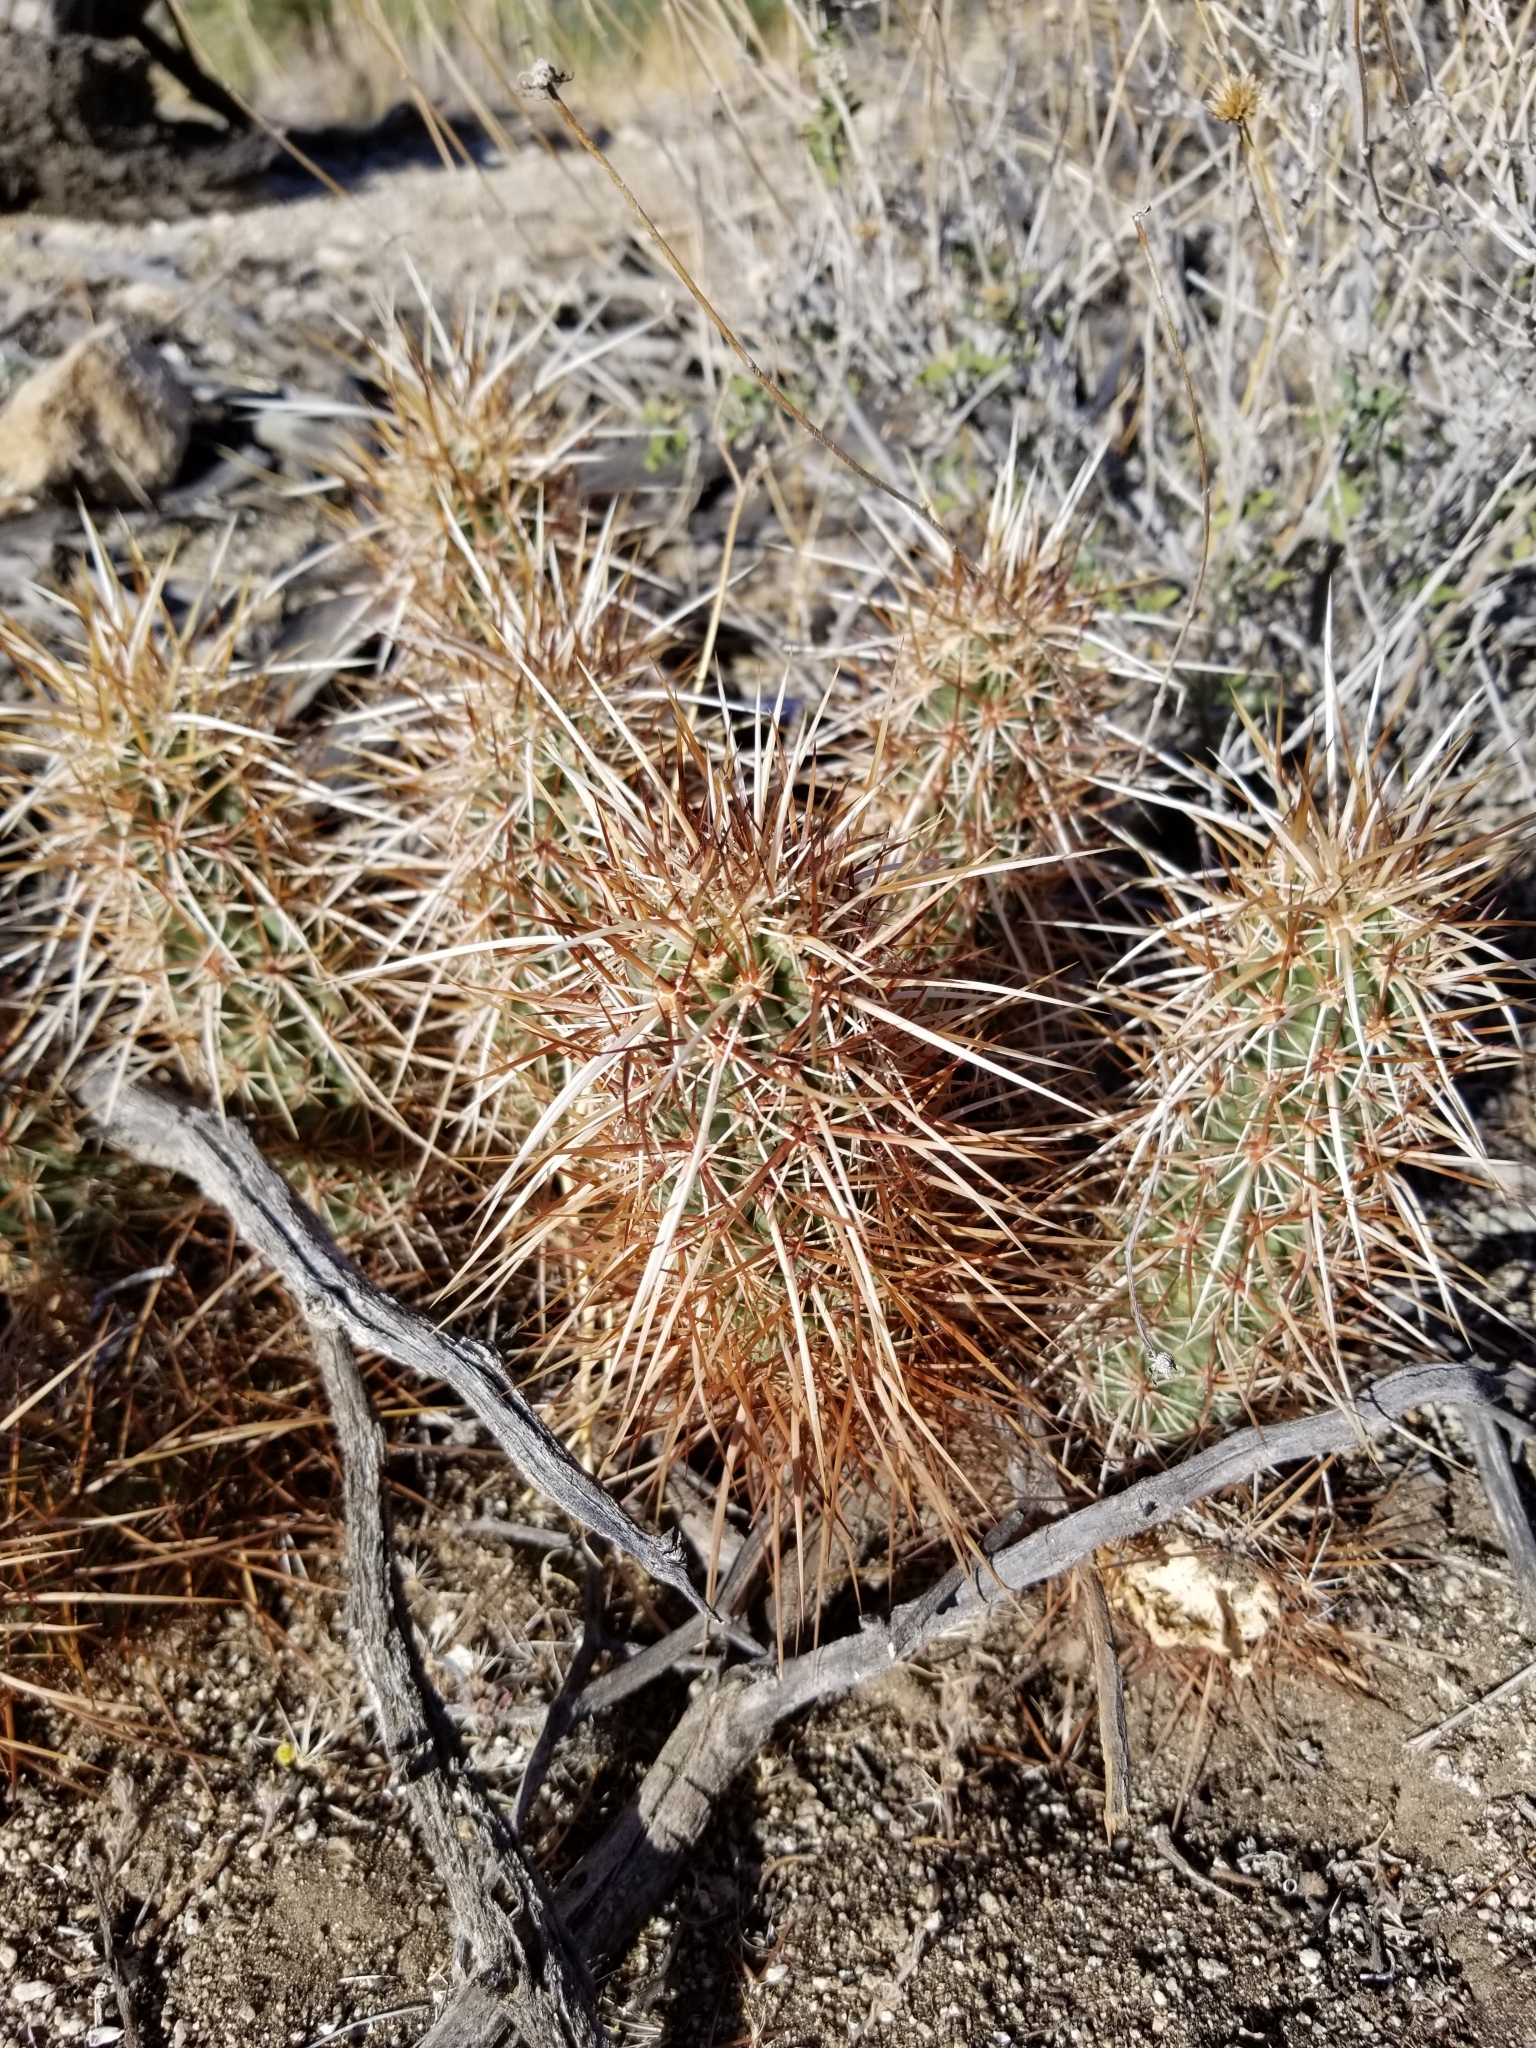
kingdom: Plantae
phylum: Tracheophyta
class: Magnoliopsida
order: Caryophyllales
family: Cactaceae
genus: Echinocereus
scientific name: Echinocereus engelmannii
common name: Engelmann's hedgehog cactus
